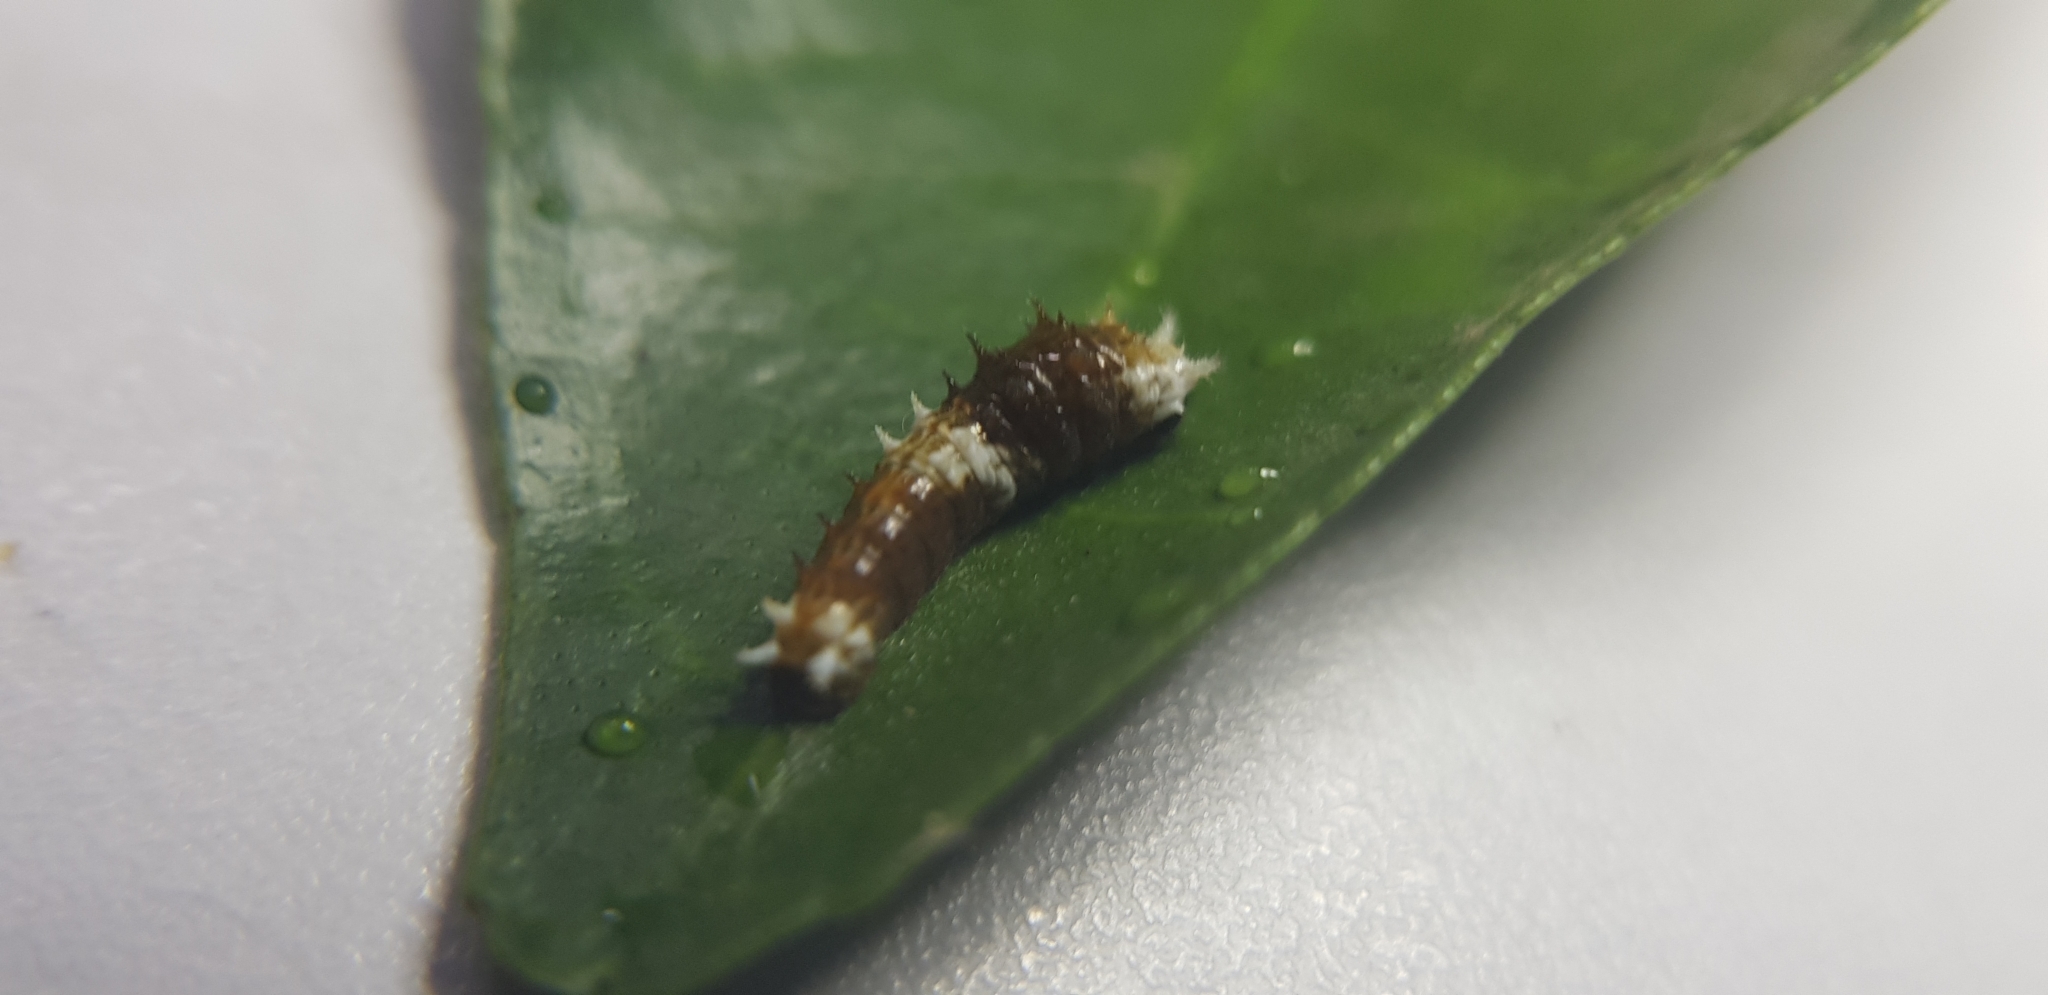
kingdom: Animalia
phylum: Arthropoda
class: Insecta
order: Lepidoptera
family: Papilionidae
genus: Papilio
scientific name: Papilio aegeus
